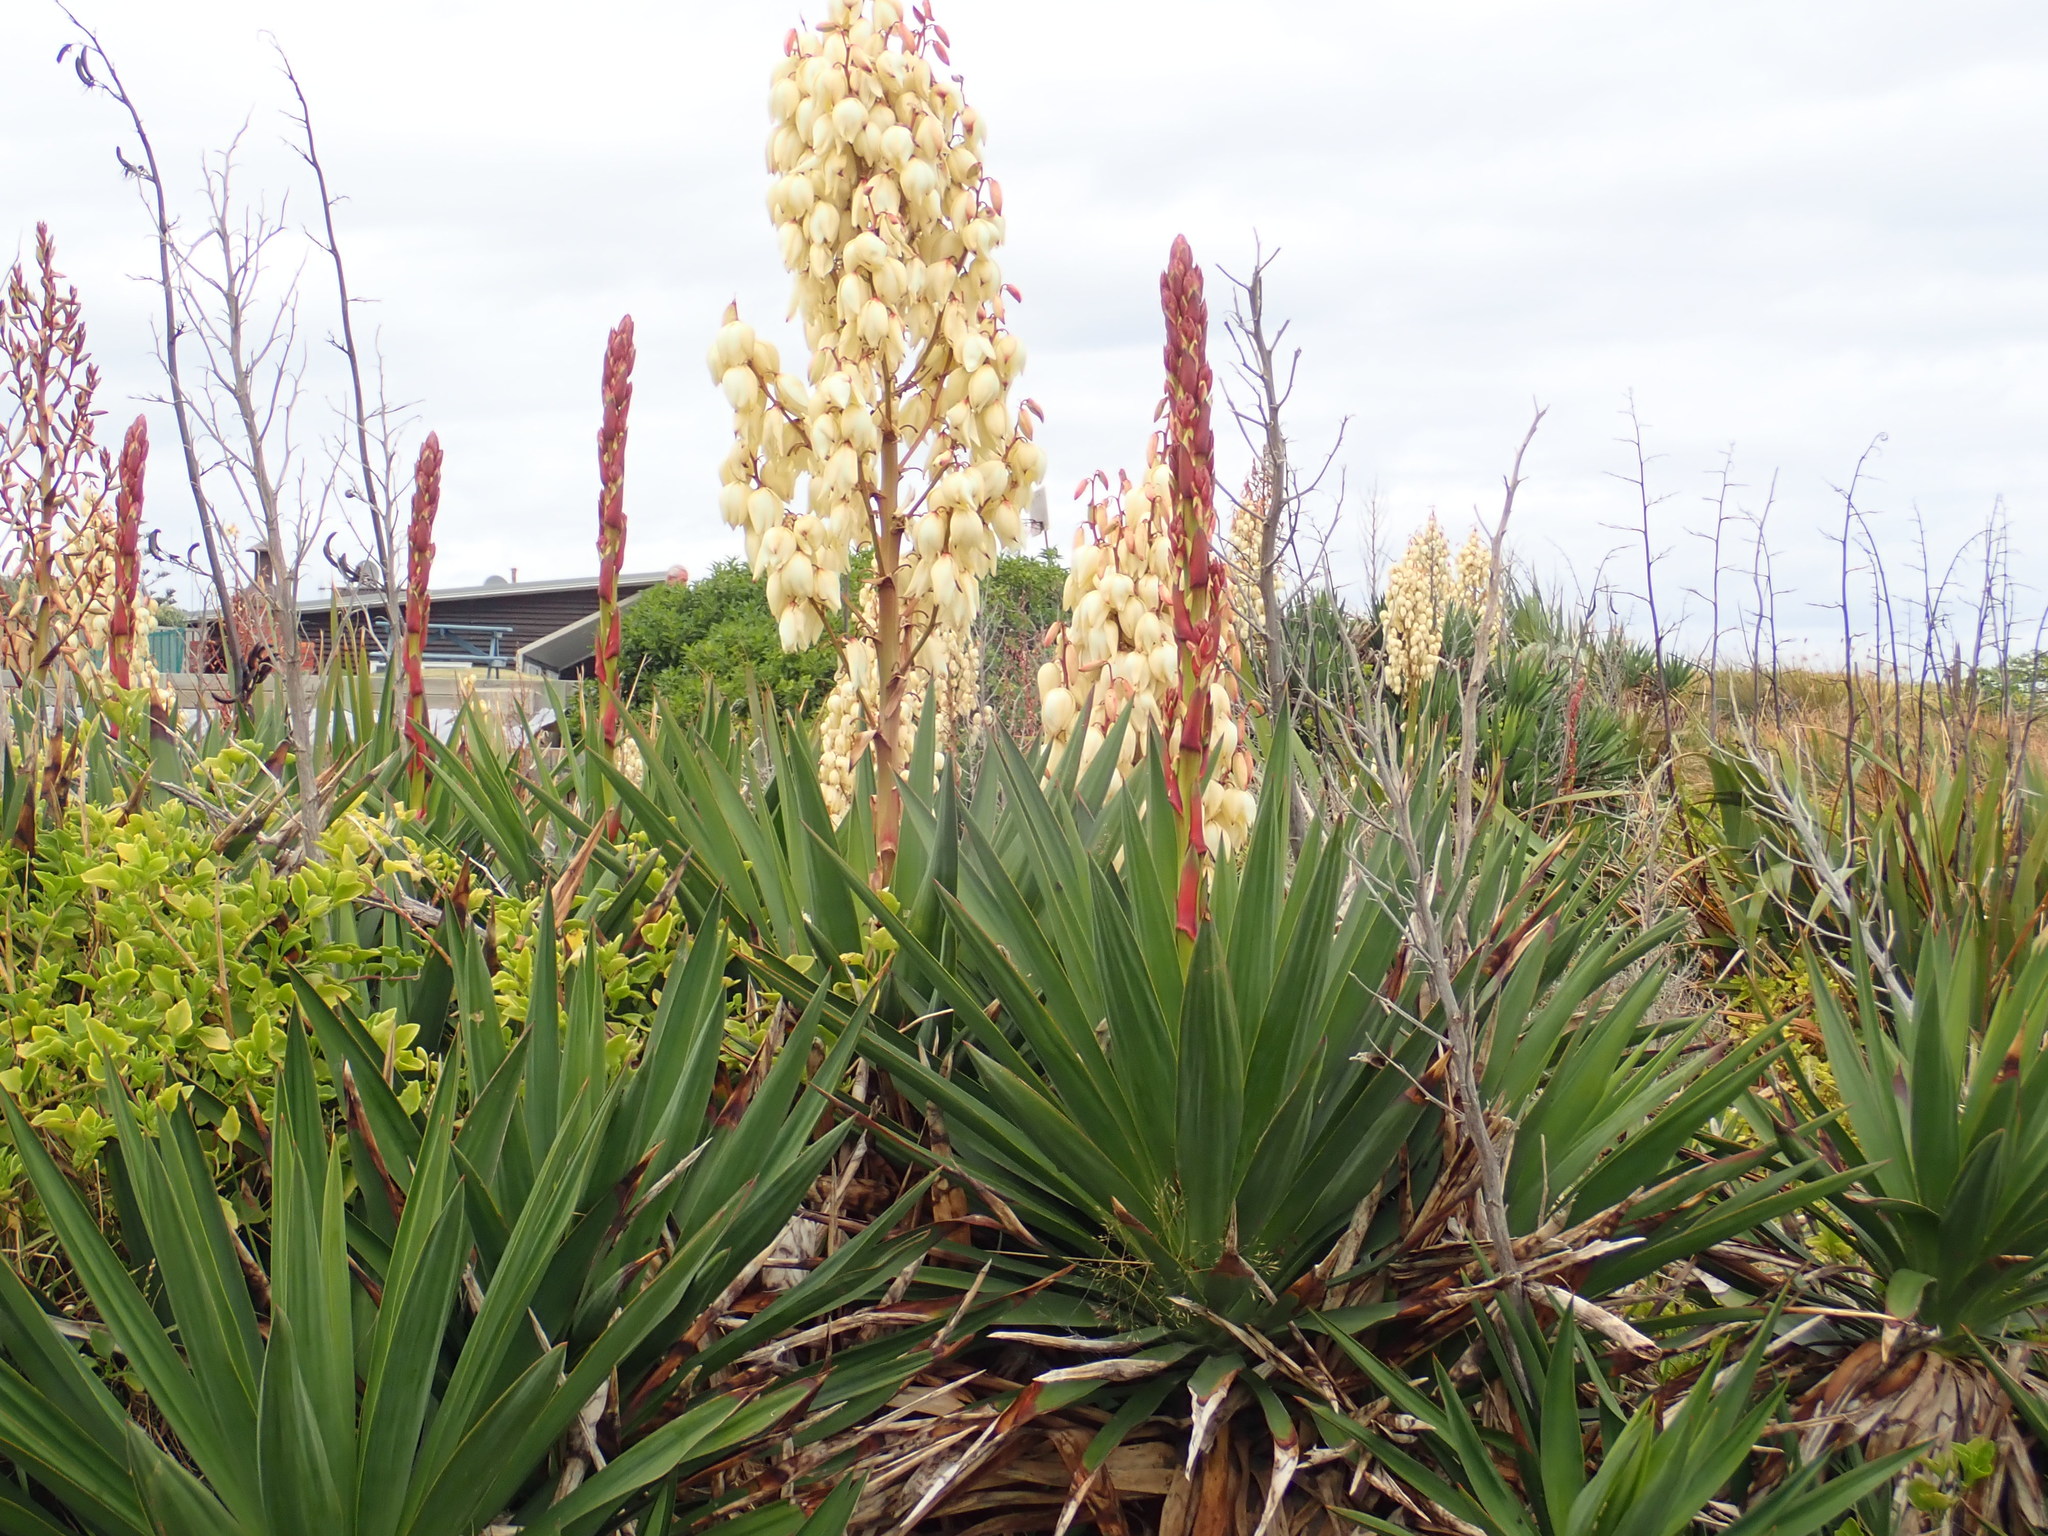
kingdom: Plantae
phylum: Tracheophyta
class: Liliopsida
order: Asparagales
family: Asparagaceae
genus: Yucca
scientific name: Yucca gloriosa
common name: Spanish-dagger
